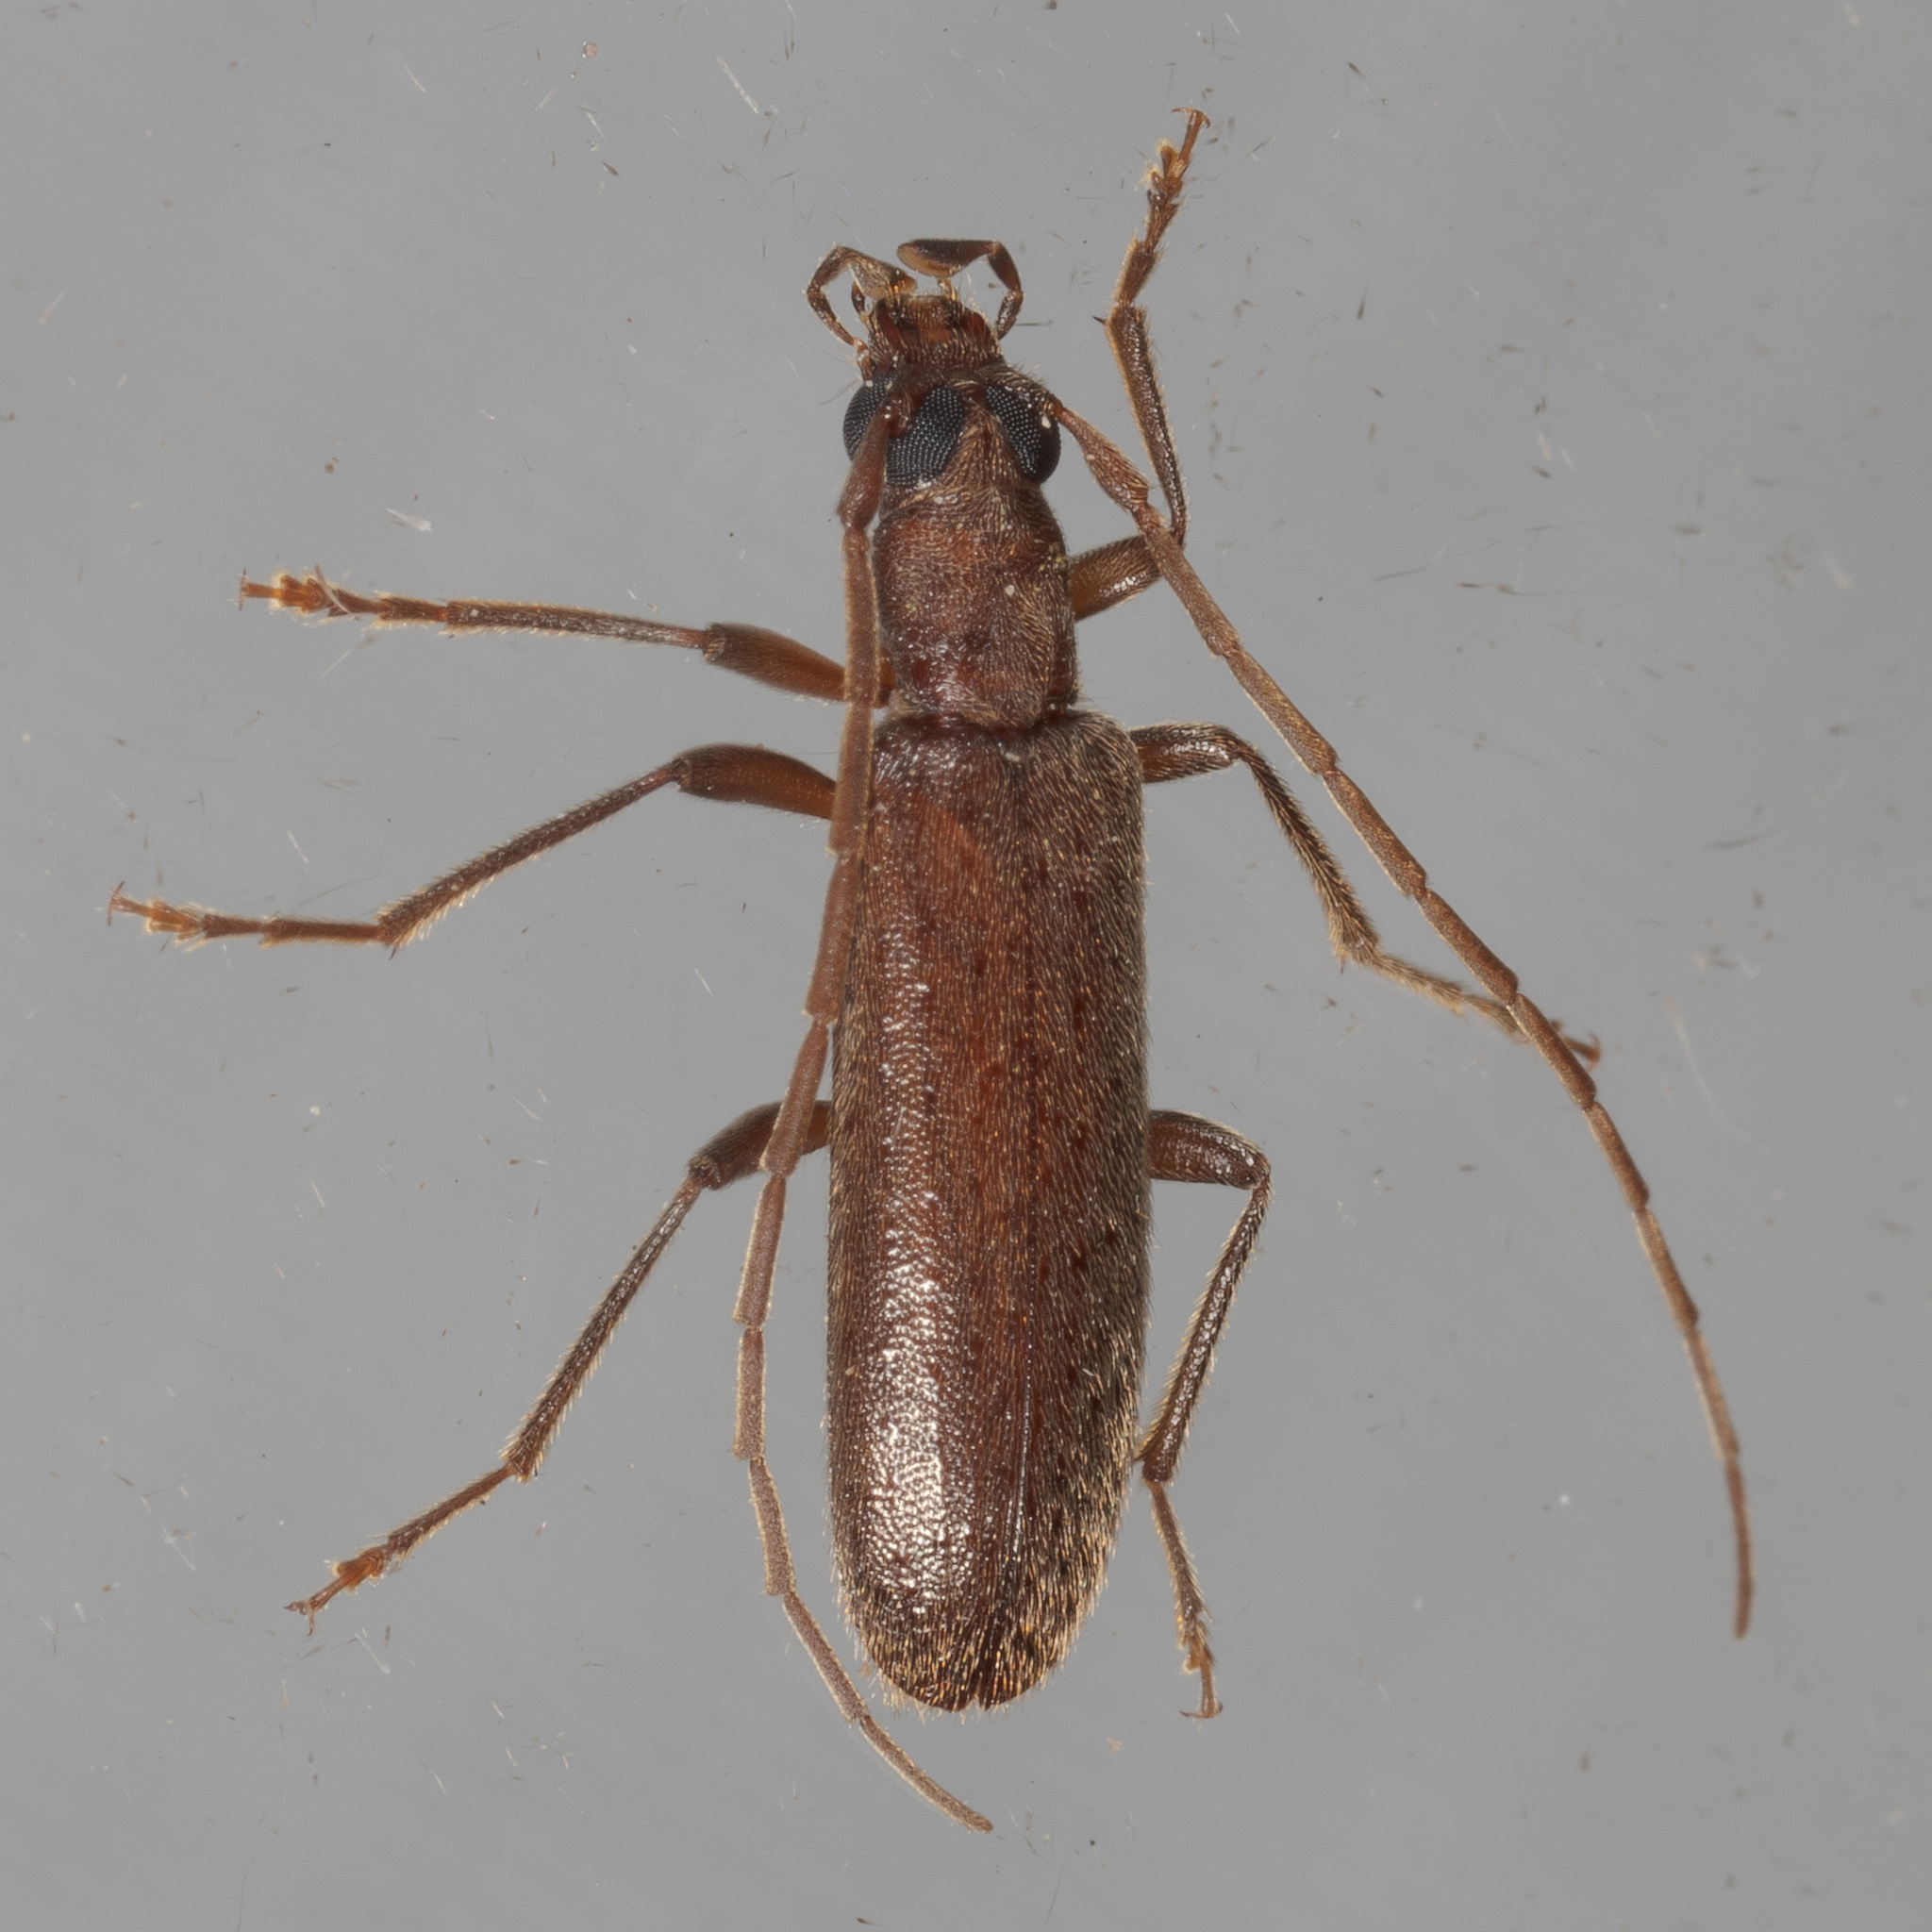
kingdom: Animalia
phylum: Arthropoda
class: Insecta
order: Coleoptera
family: Oedemeridae
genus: Sparedrus
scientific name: Sparedrus aspersus
